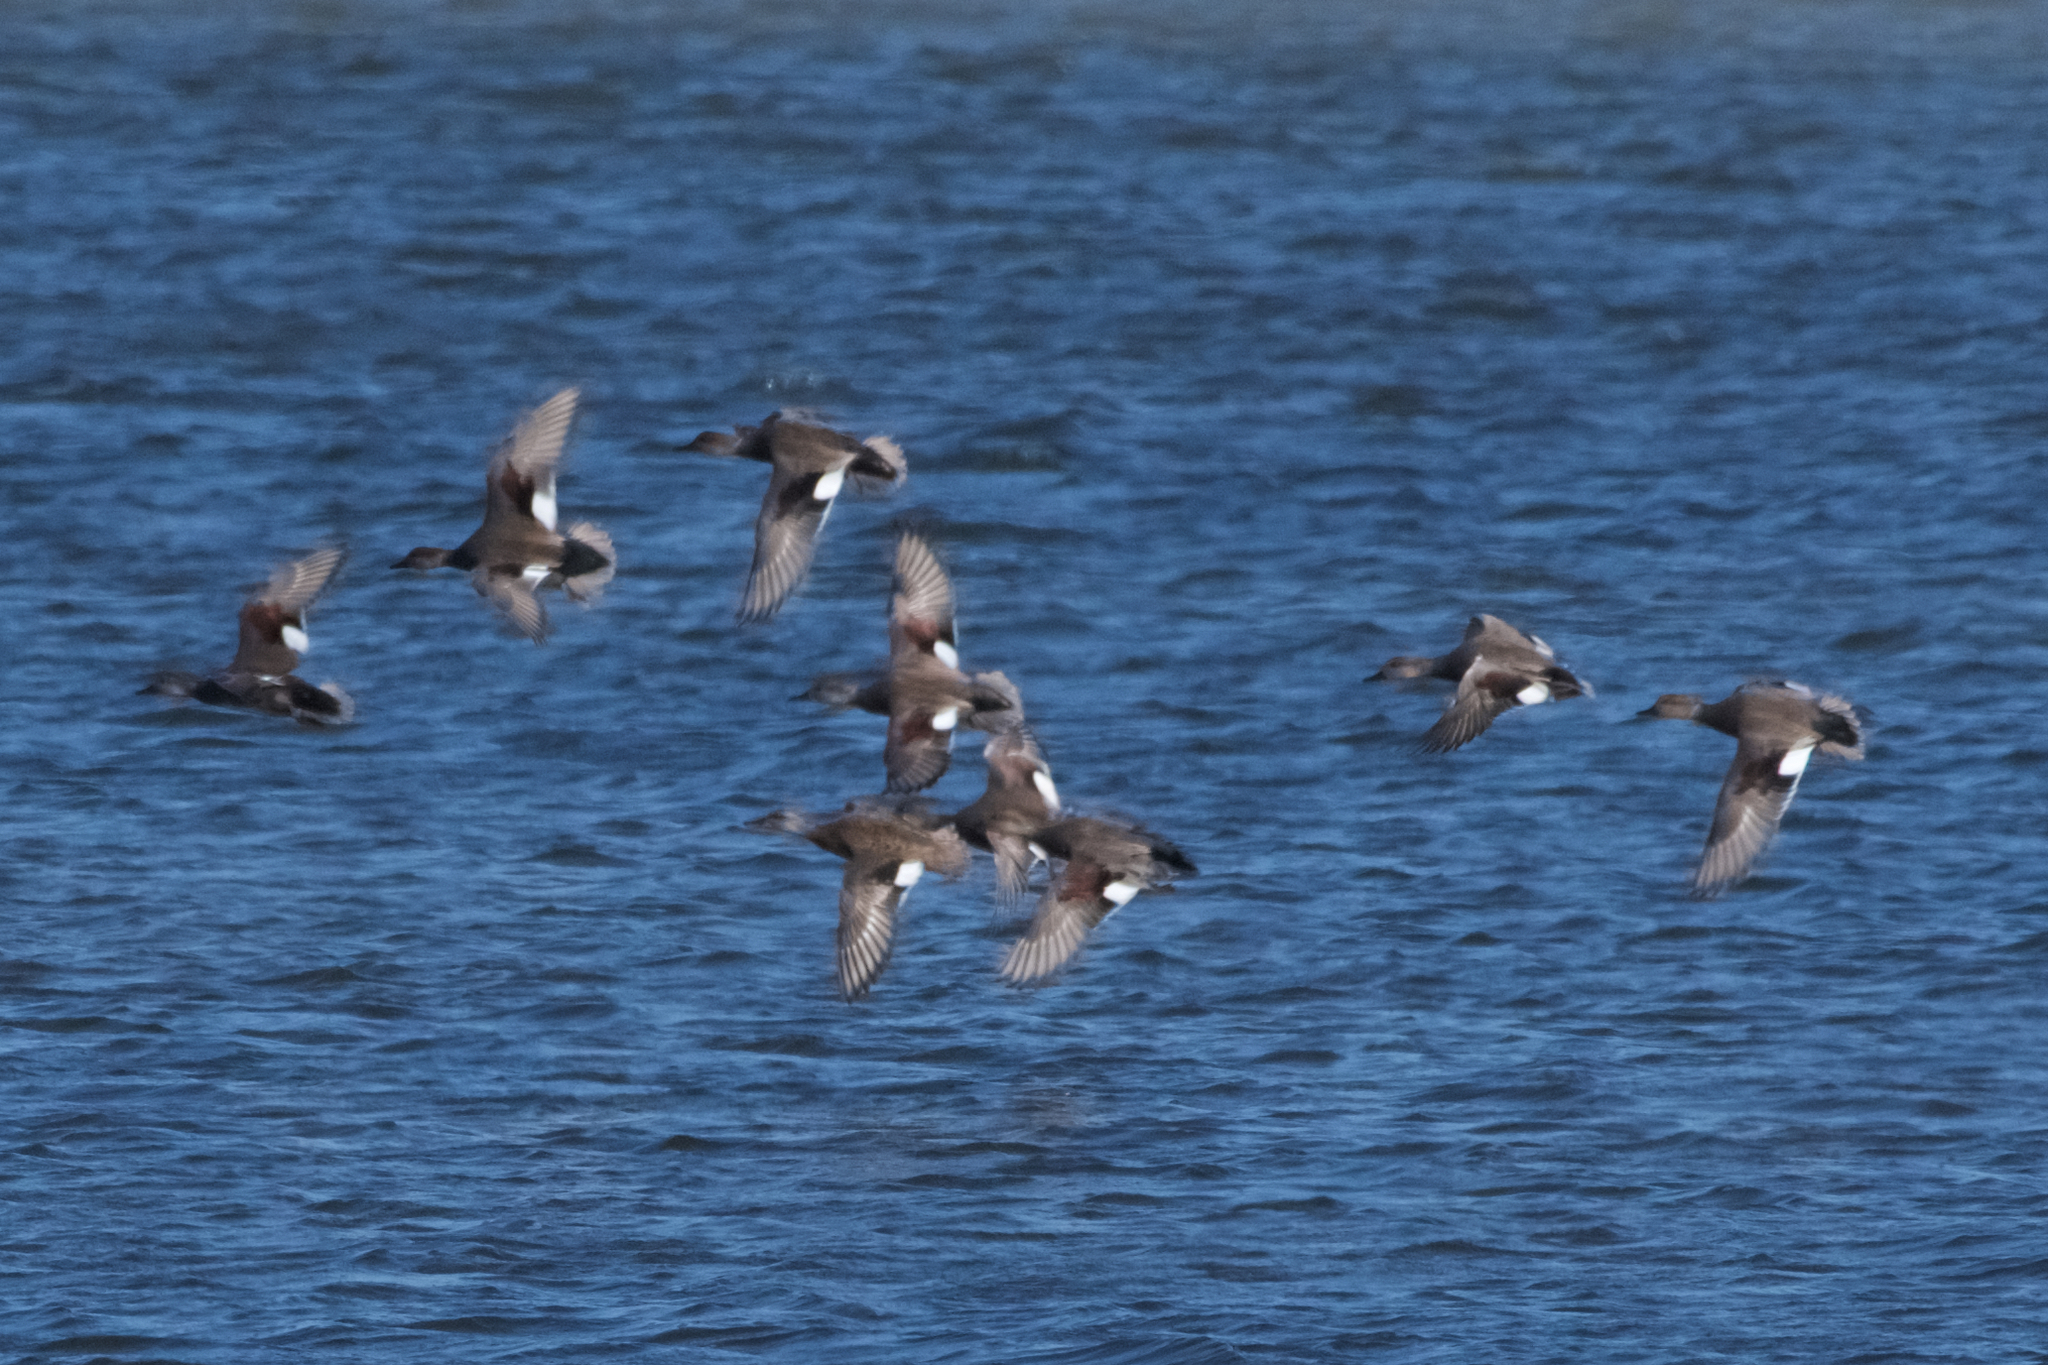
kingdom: Animalia
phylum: Chordata
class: Aves
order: Anseriformes
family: Anatidae
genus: Mareca
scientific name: Mareca americana
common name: American wigeon
